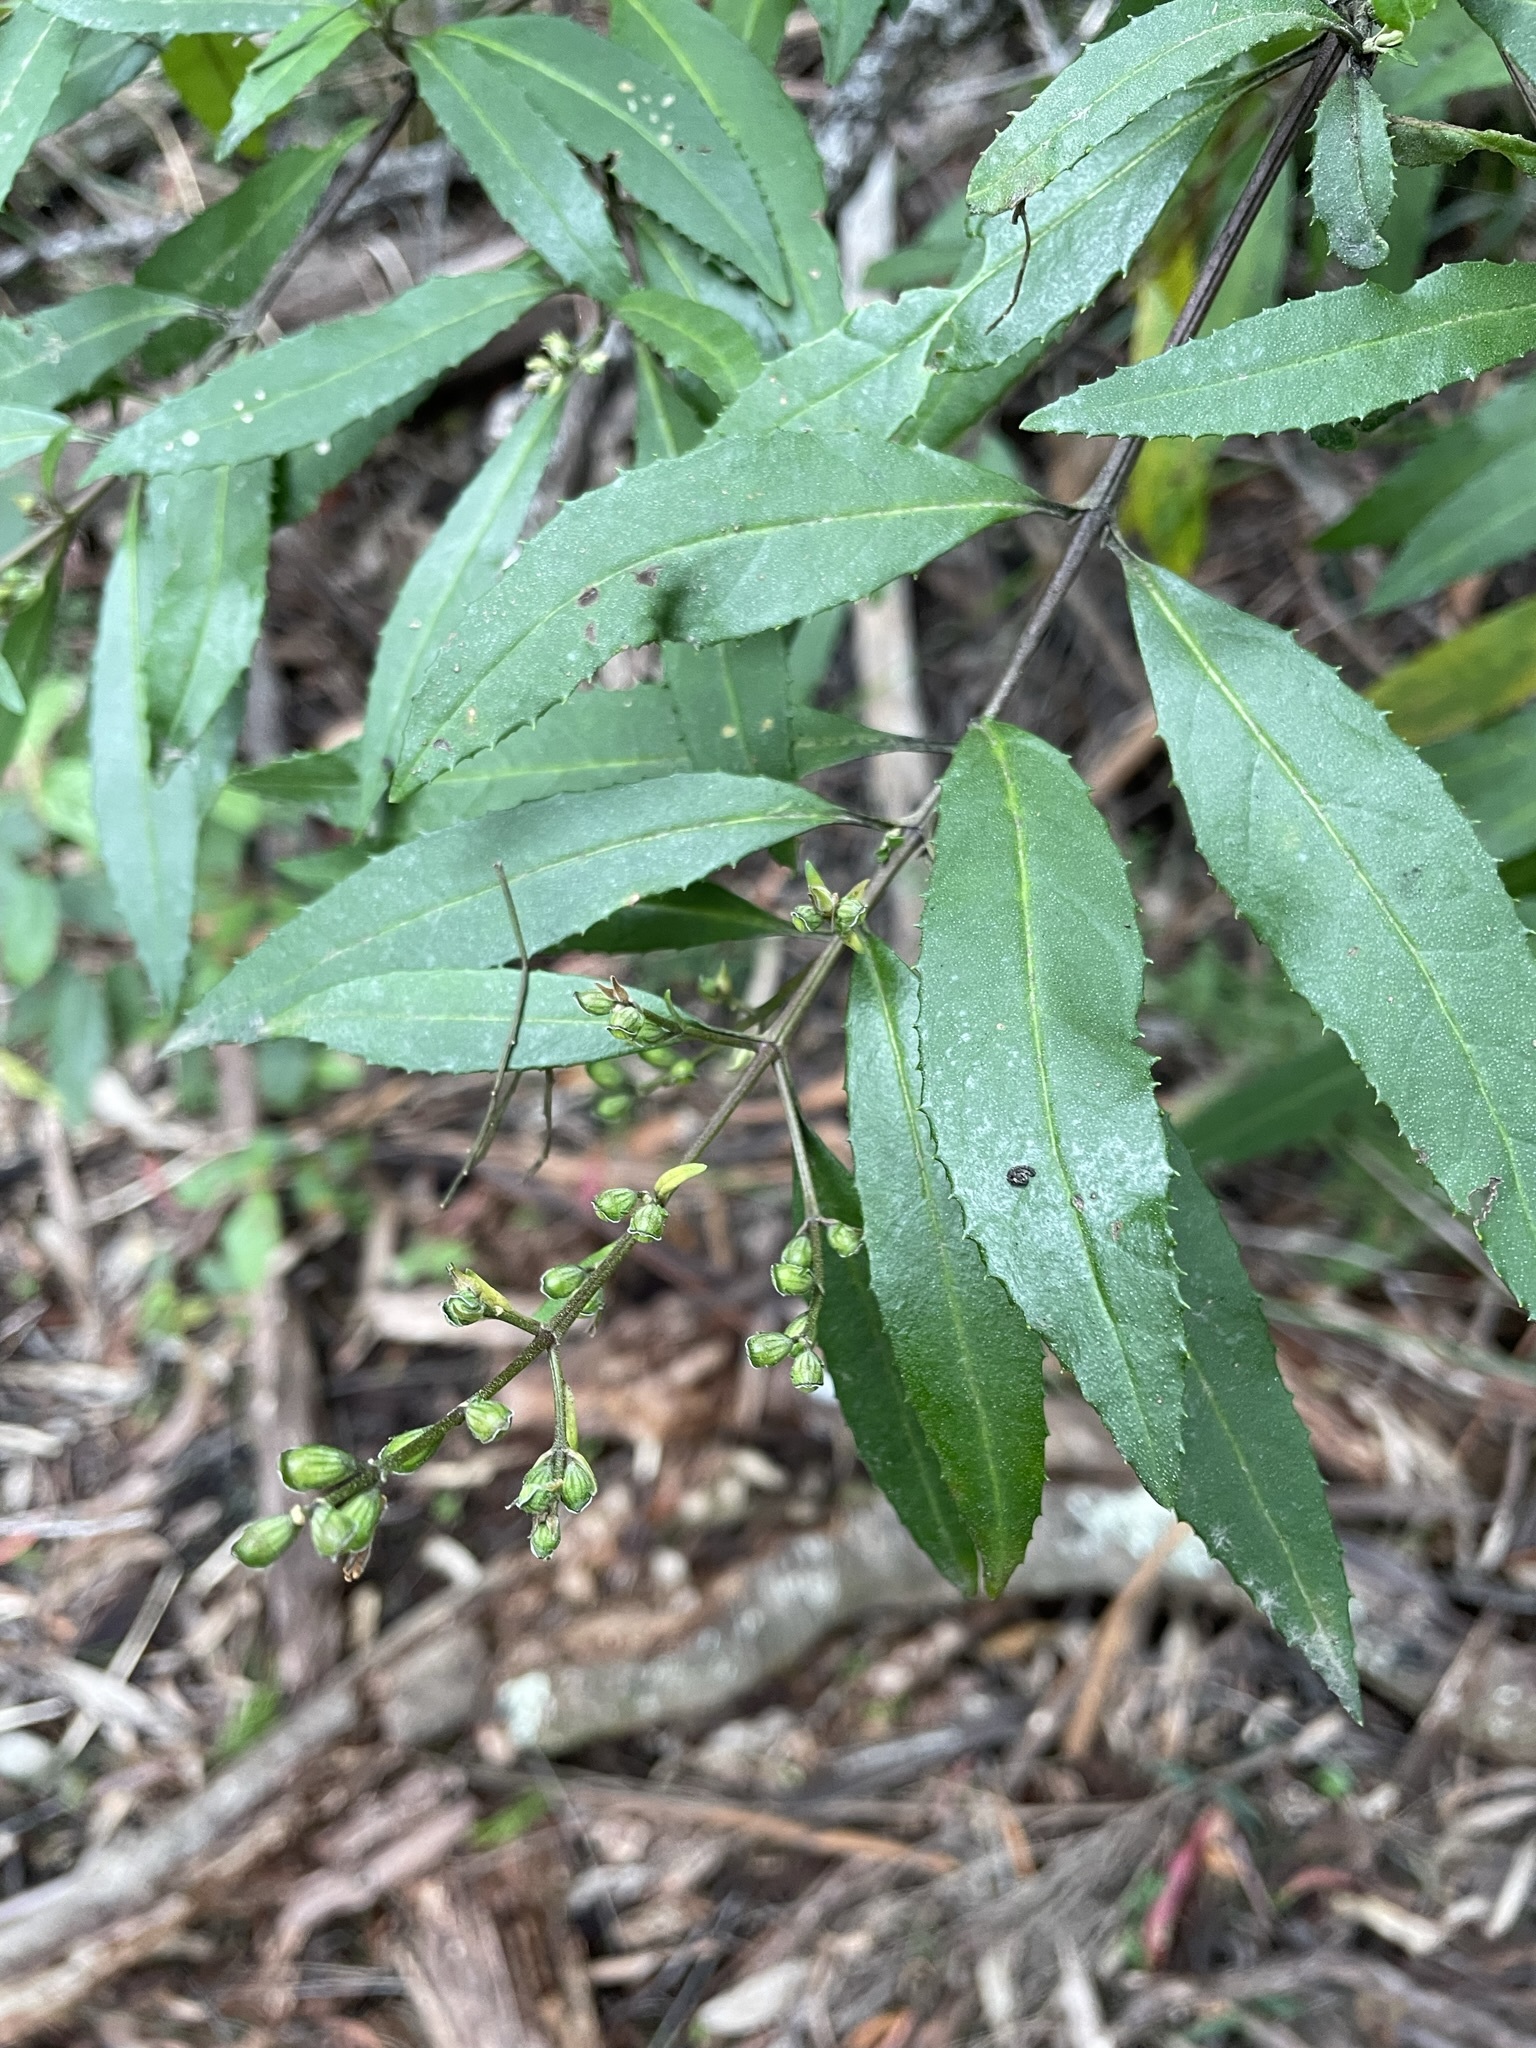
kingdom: Plantae
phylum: Tracheophyta
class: Magnoliopsida
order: Lamiales
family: Lamiaceae
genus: Prostanthera
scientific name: Prostanthera lasianthos
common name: Mountain-lilac
